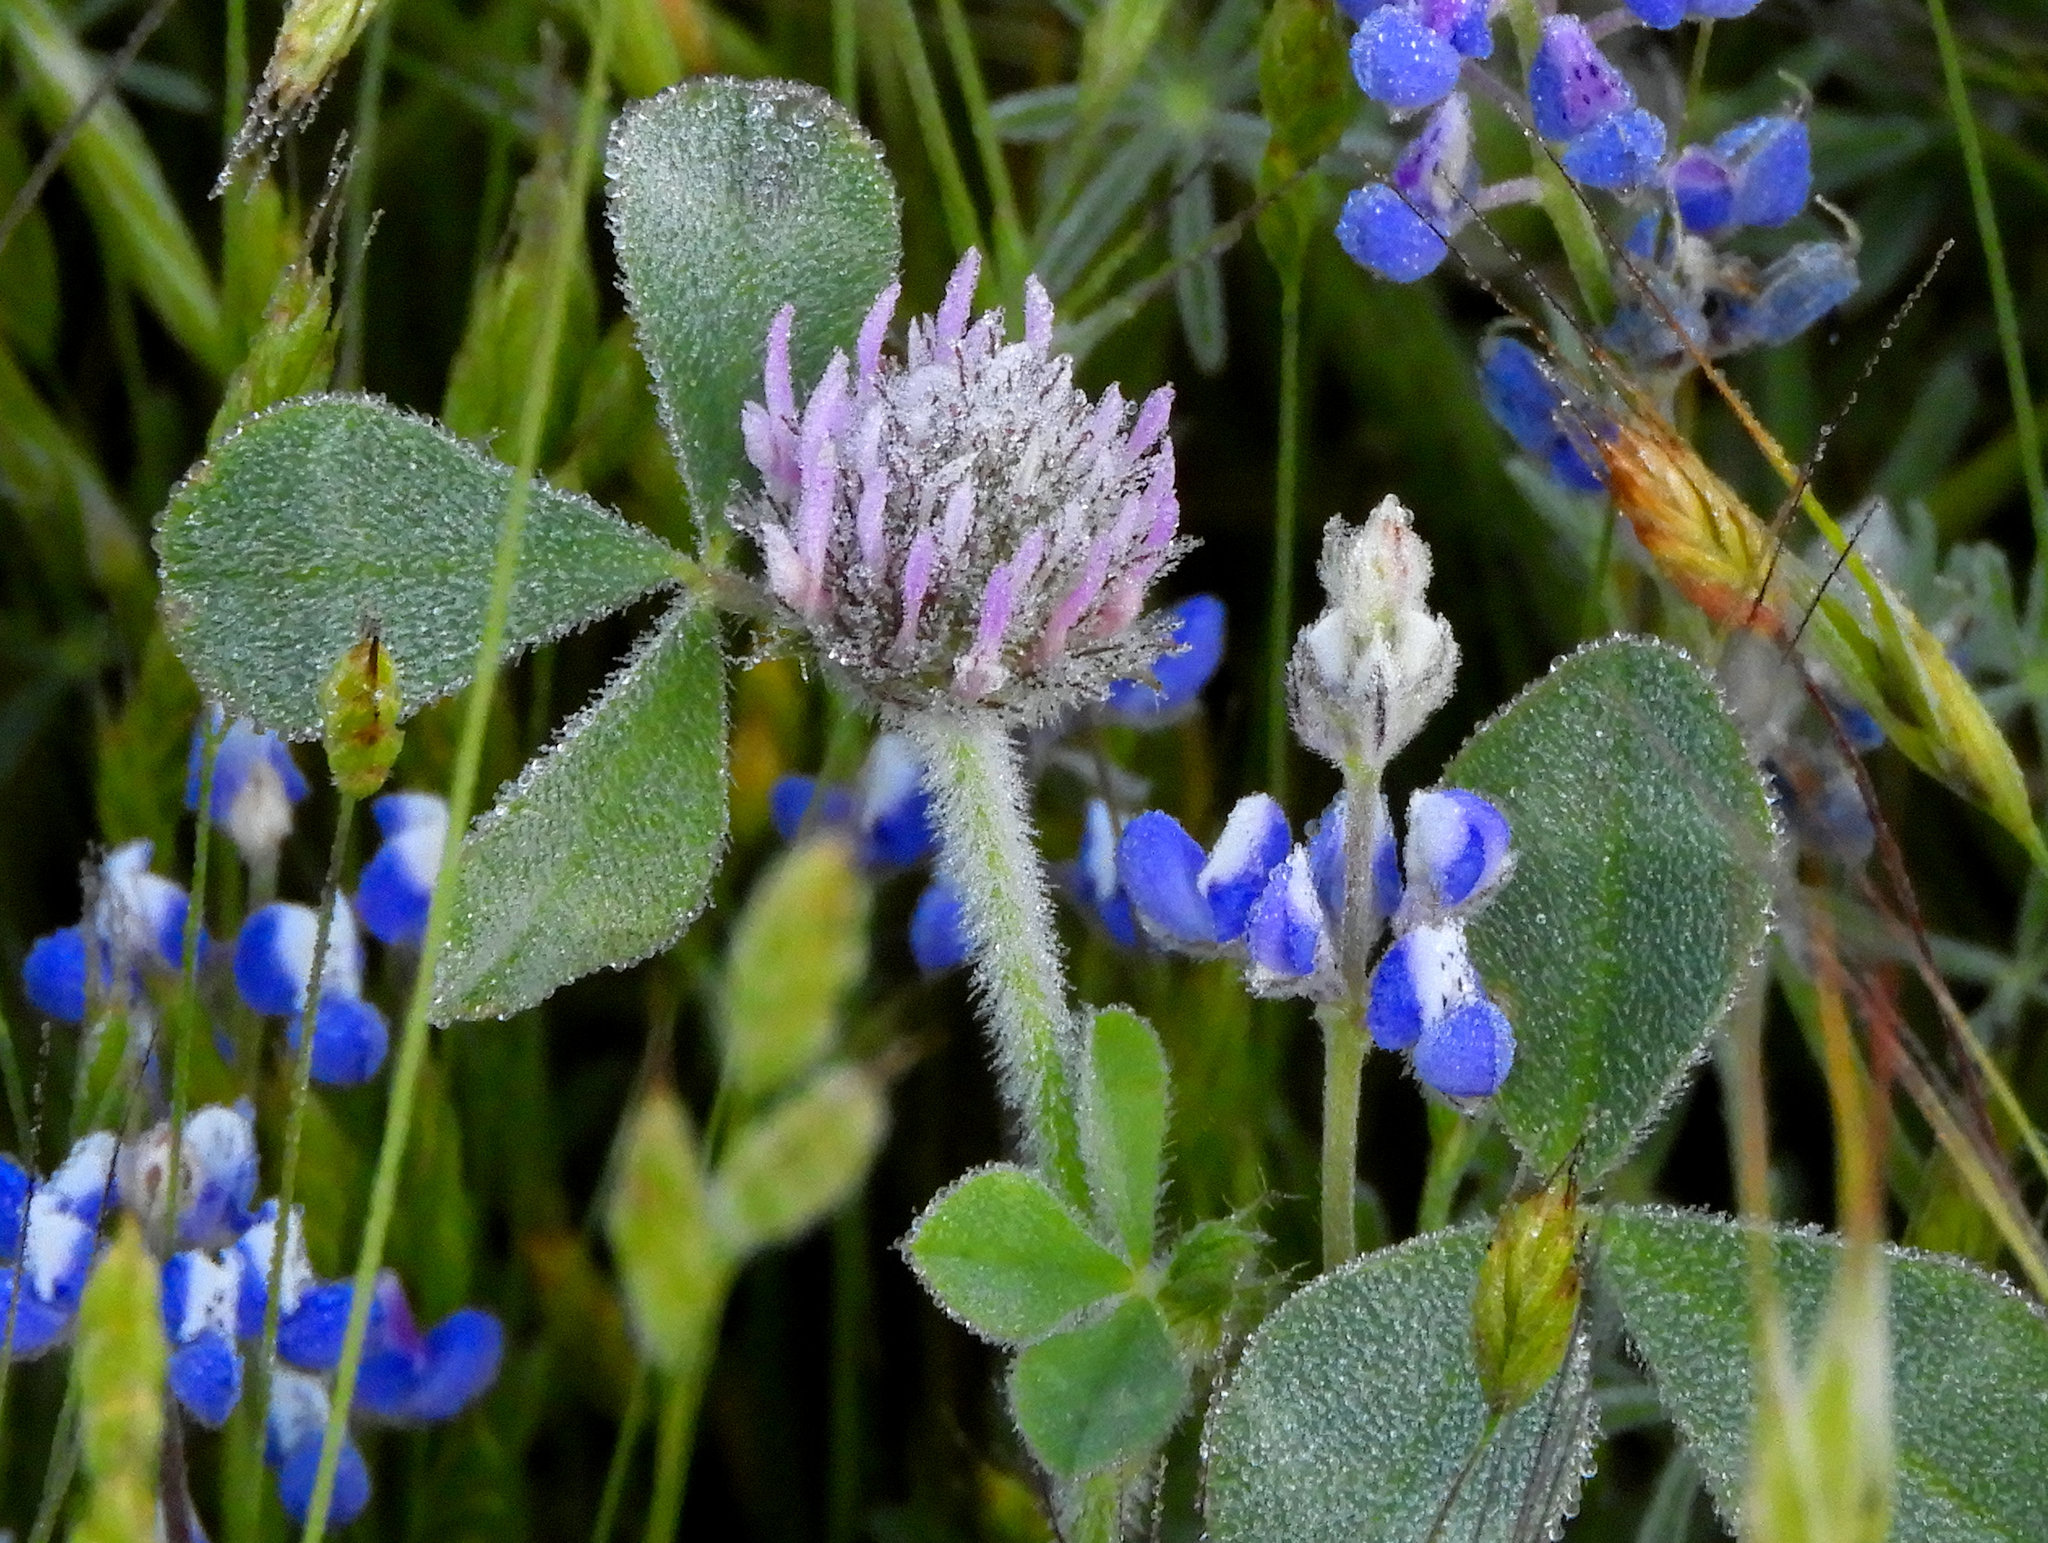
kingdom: Plantae
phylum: Tracheophyta
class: Magnoliopsida
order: Fabales
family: Fabaceae
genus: Trifolium
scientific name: Trifolium hirtum
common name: Rose clover
